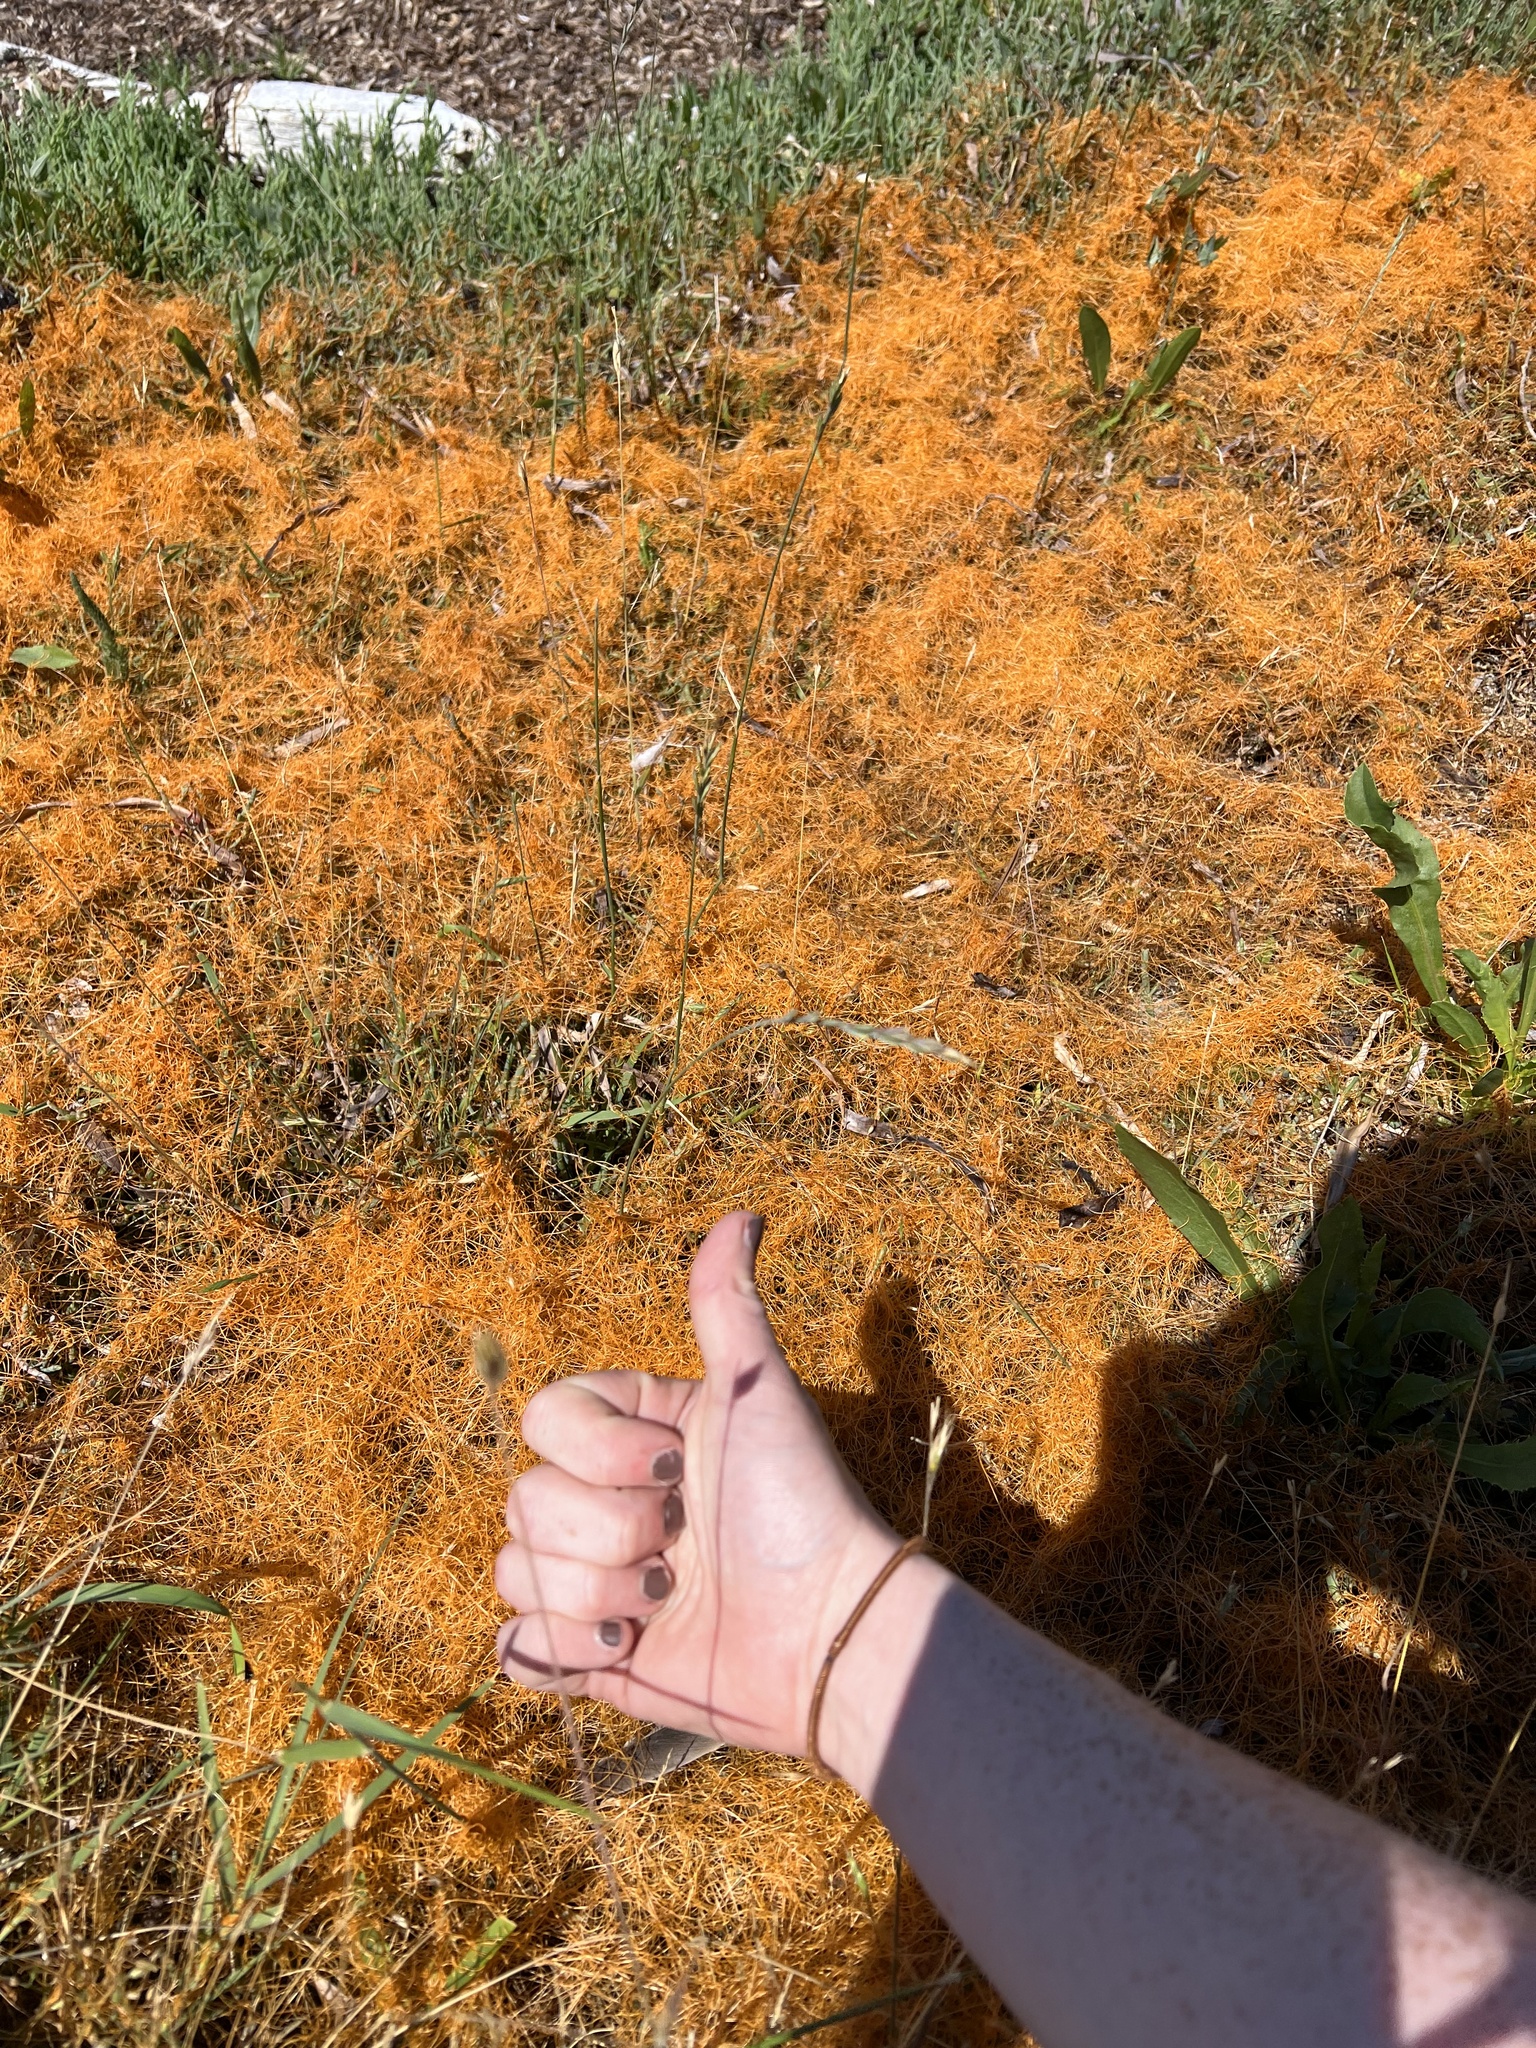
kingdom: Plantae
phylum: Tracheophyta
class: Magnoliopsida
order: Solanales
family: Convolvulaceae
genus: Cuscuta
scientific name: Cuscuta pacifica
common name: Large saltmarsh dodder
